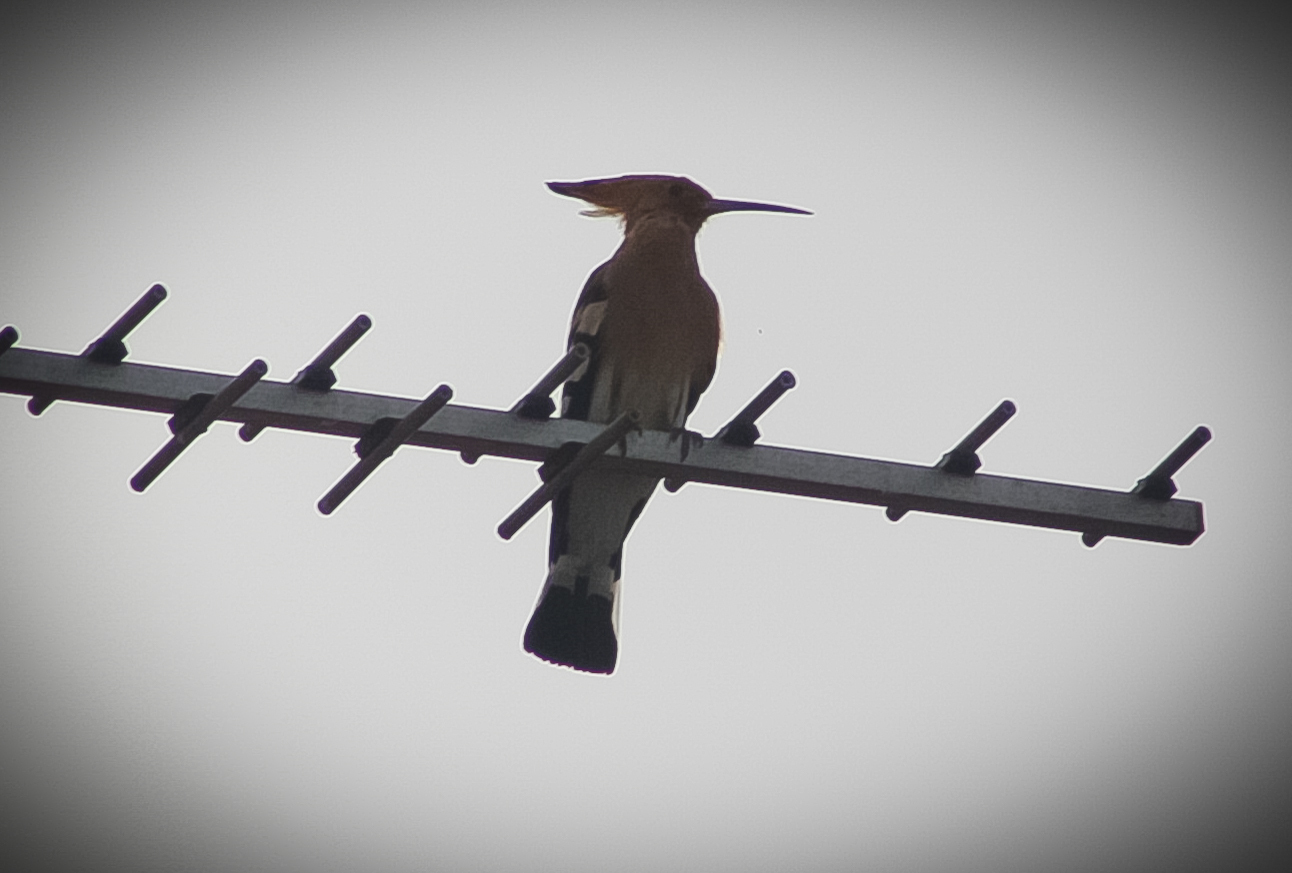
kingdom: Animalia
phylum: Chordata
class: Aves
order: Bucerotiformes
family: Upupidae
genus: Upupa
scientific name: Upupa epops
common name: Eurasian hoopoe
